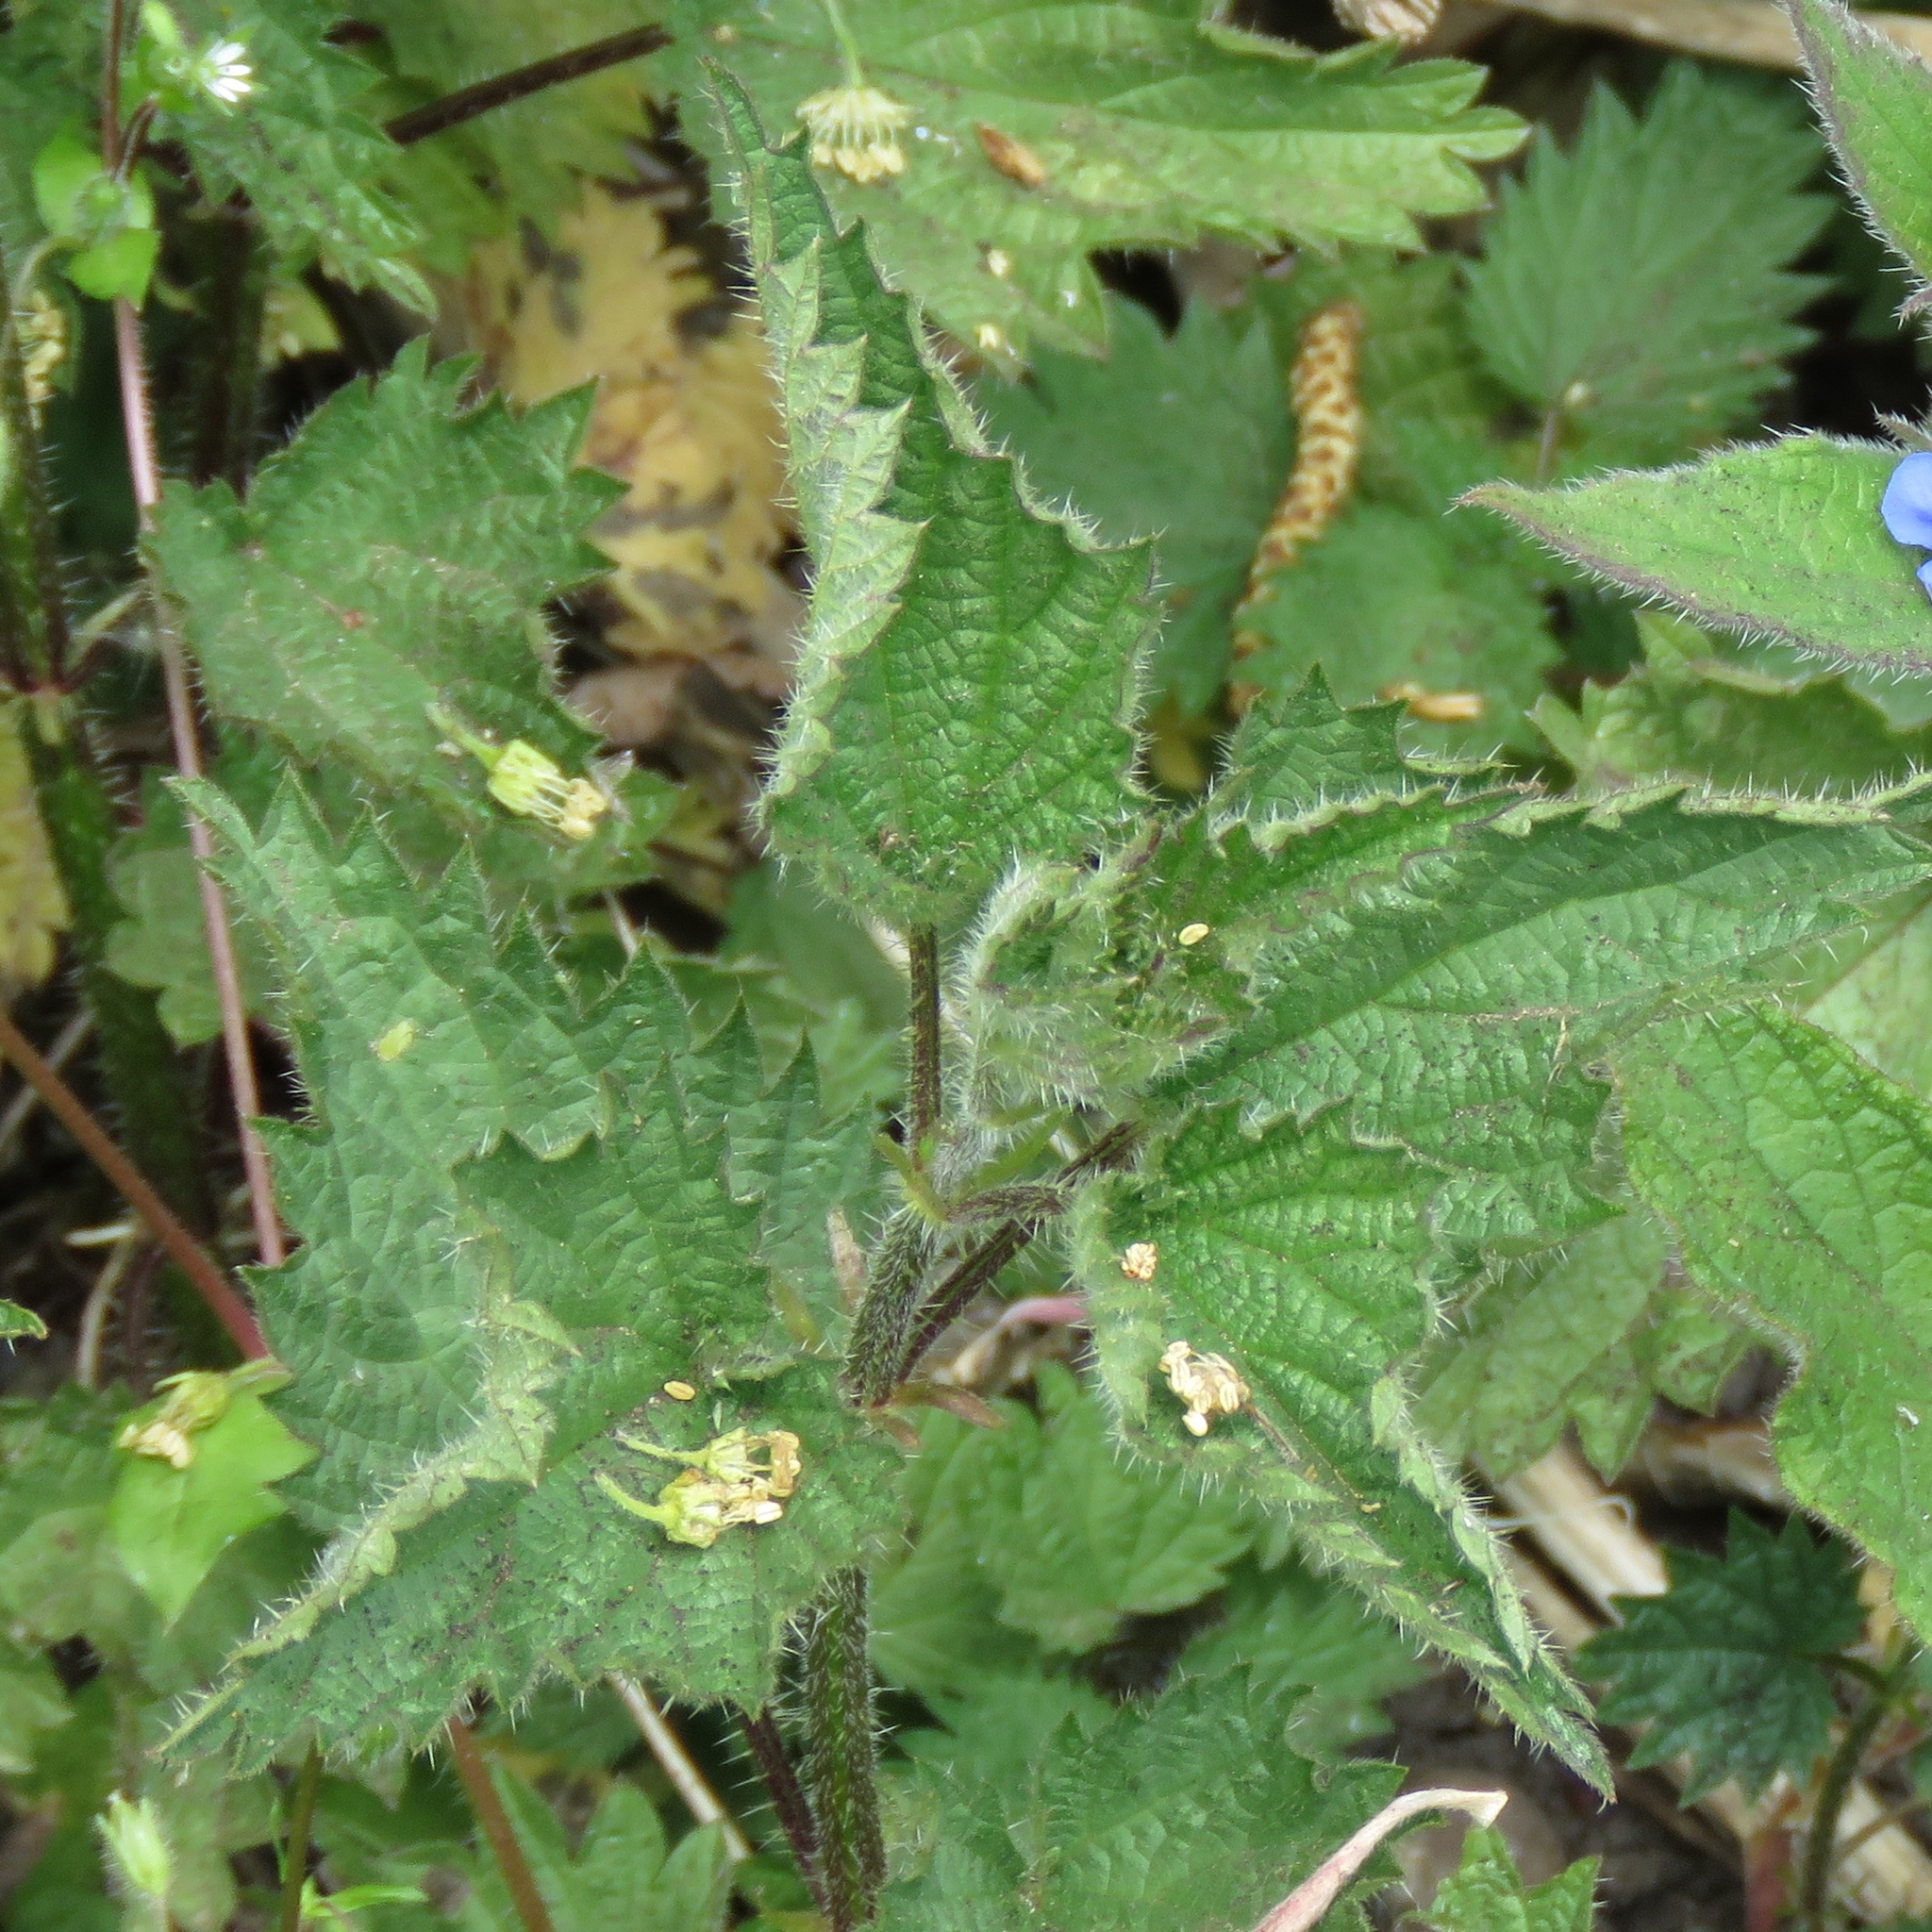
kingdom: Plantae
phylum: Tracheophyta
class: Magnoliopsida
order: Rosales
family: Urticaceae
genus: Urtica
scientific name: Urtica dioica
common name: Common nettle
